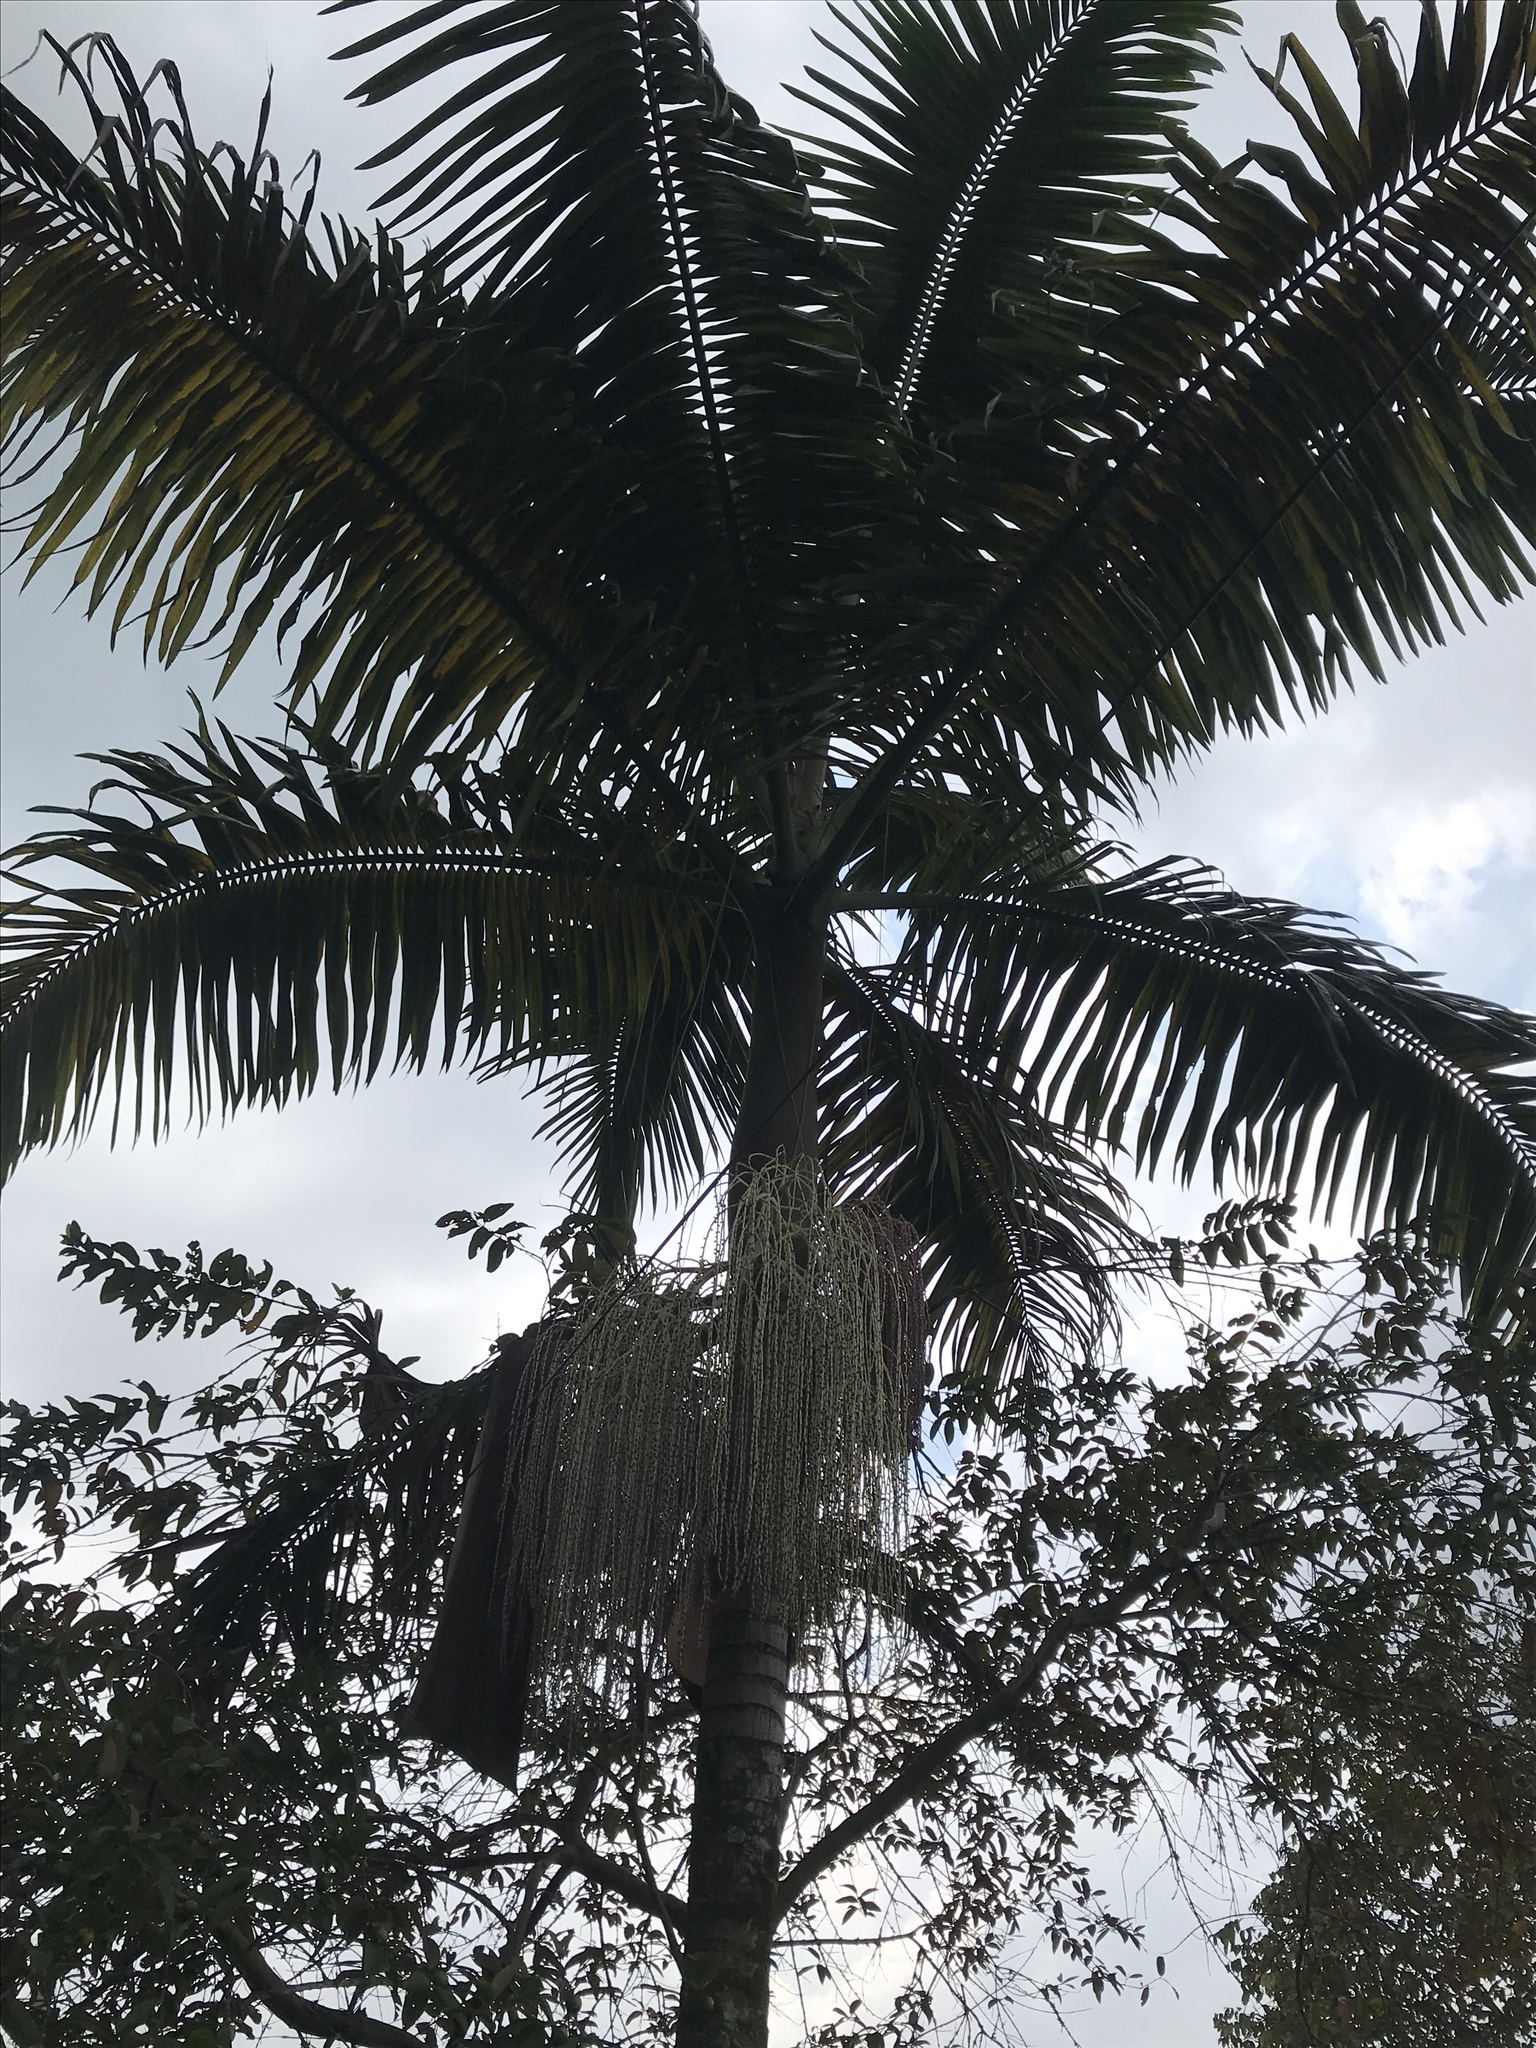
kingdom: Plantae
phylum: Tracheophyta
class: Liliopsida
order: Arecales
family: Arecaceae
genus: Archontophoenix
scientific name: Archontophoenix cunninghamiana
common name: Piccabeen bangalow palm
